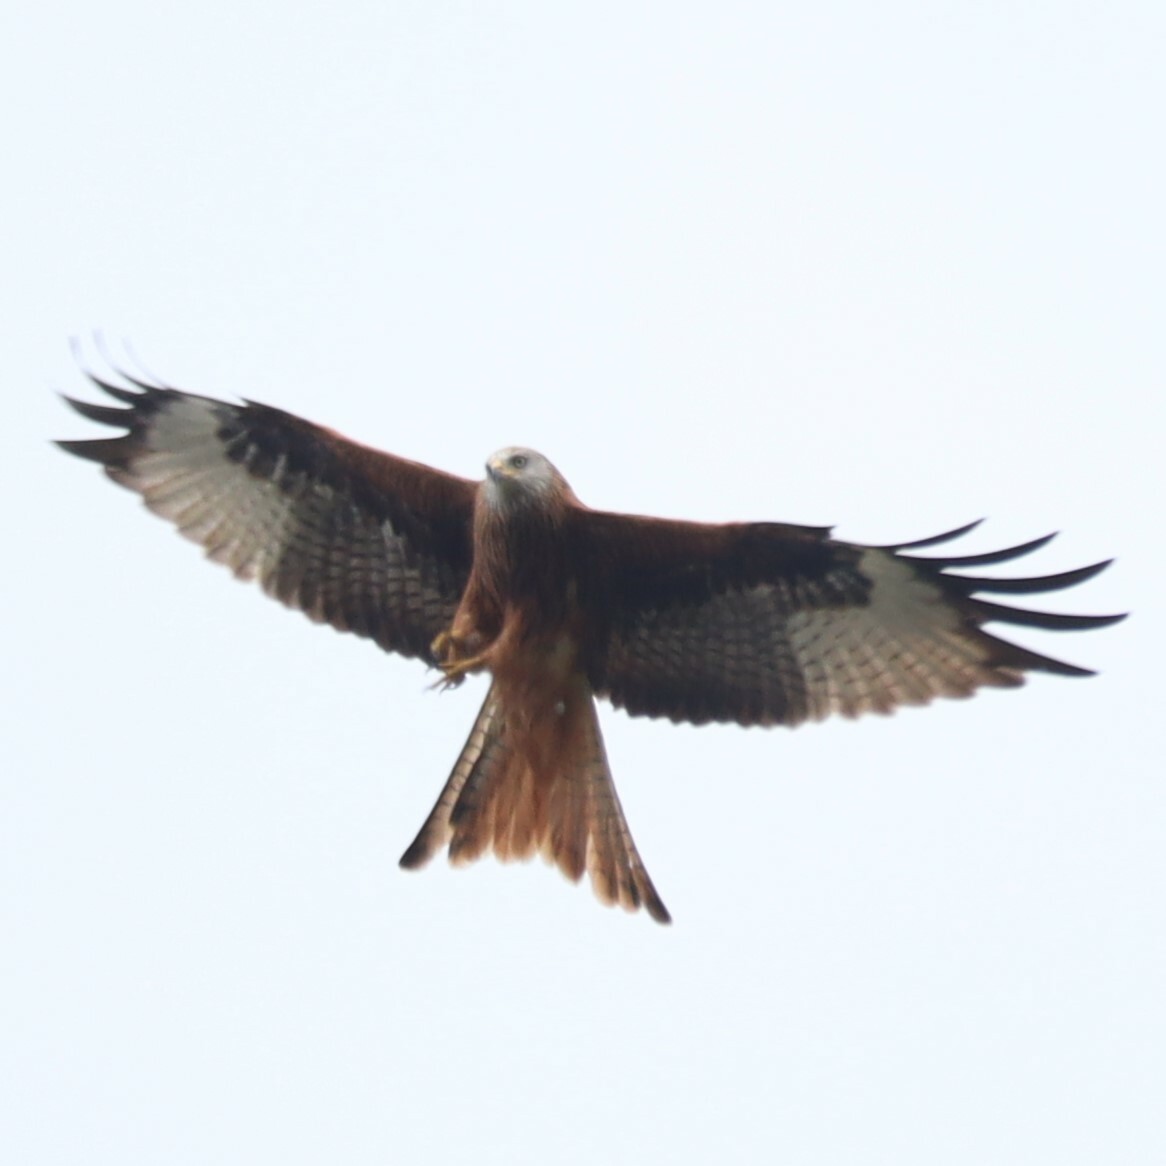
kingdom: Animalia
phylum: Chordata
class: Aves
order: Accipitriformes
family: Accipitridae
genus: Milvus
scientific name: Milvus milvus
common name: Red kite
